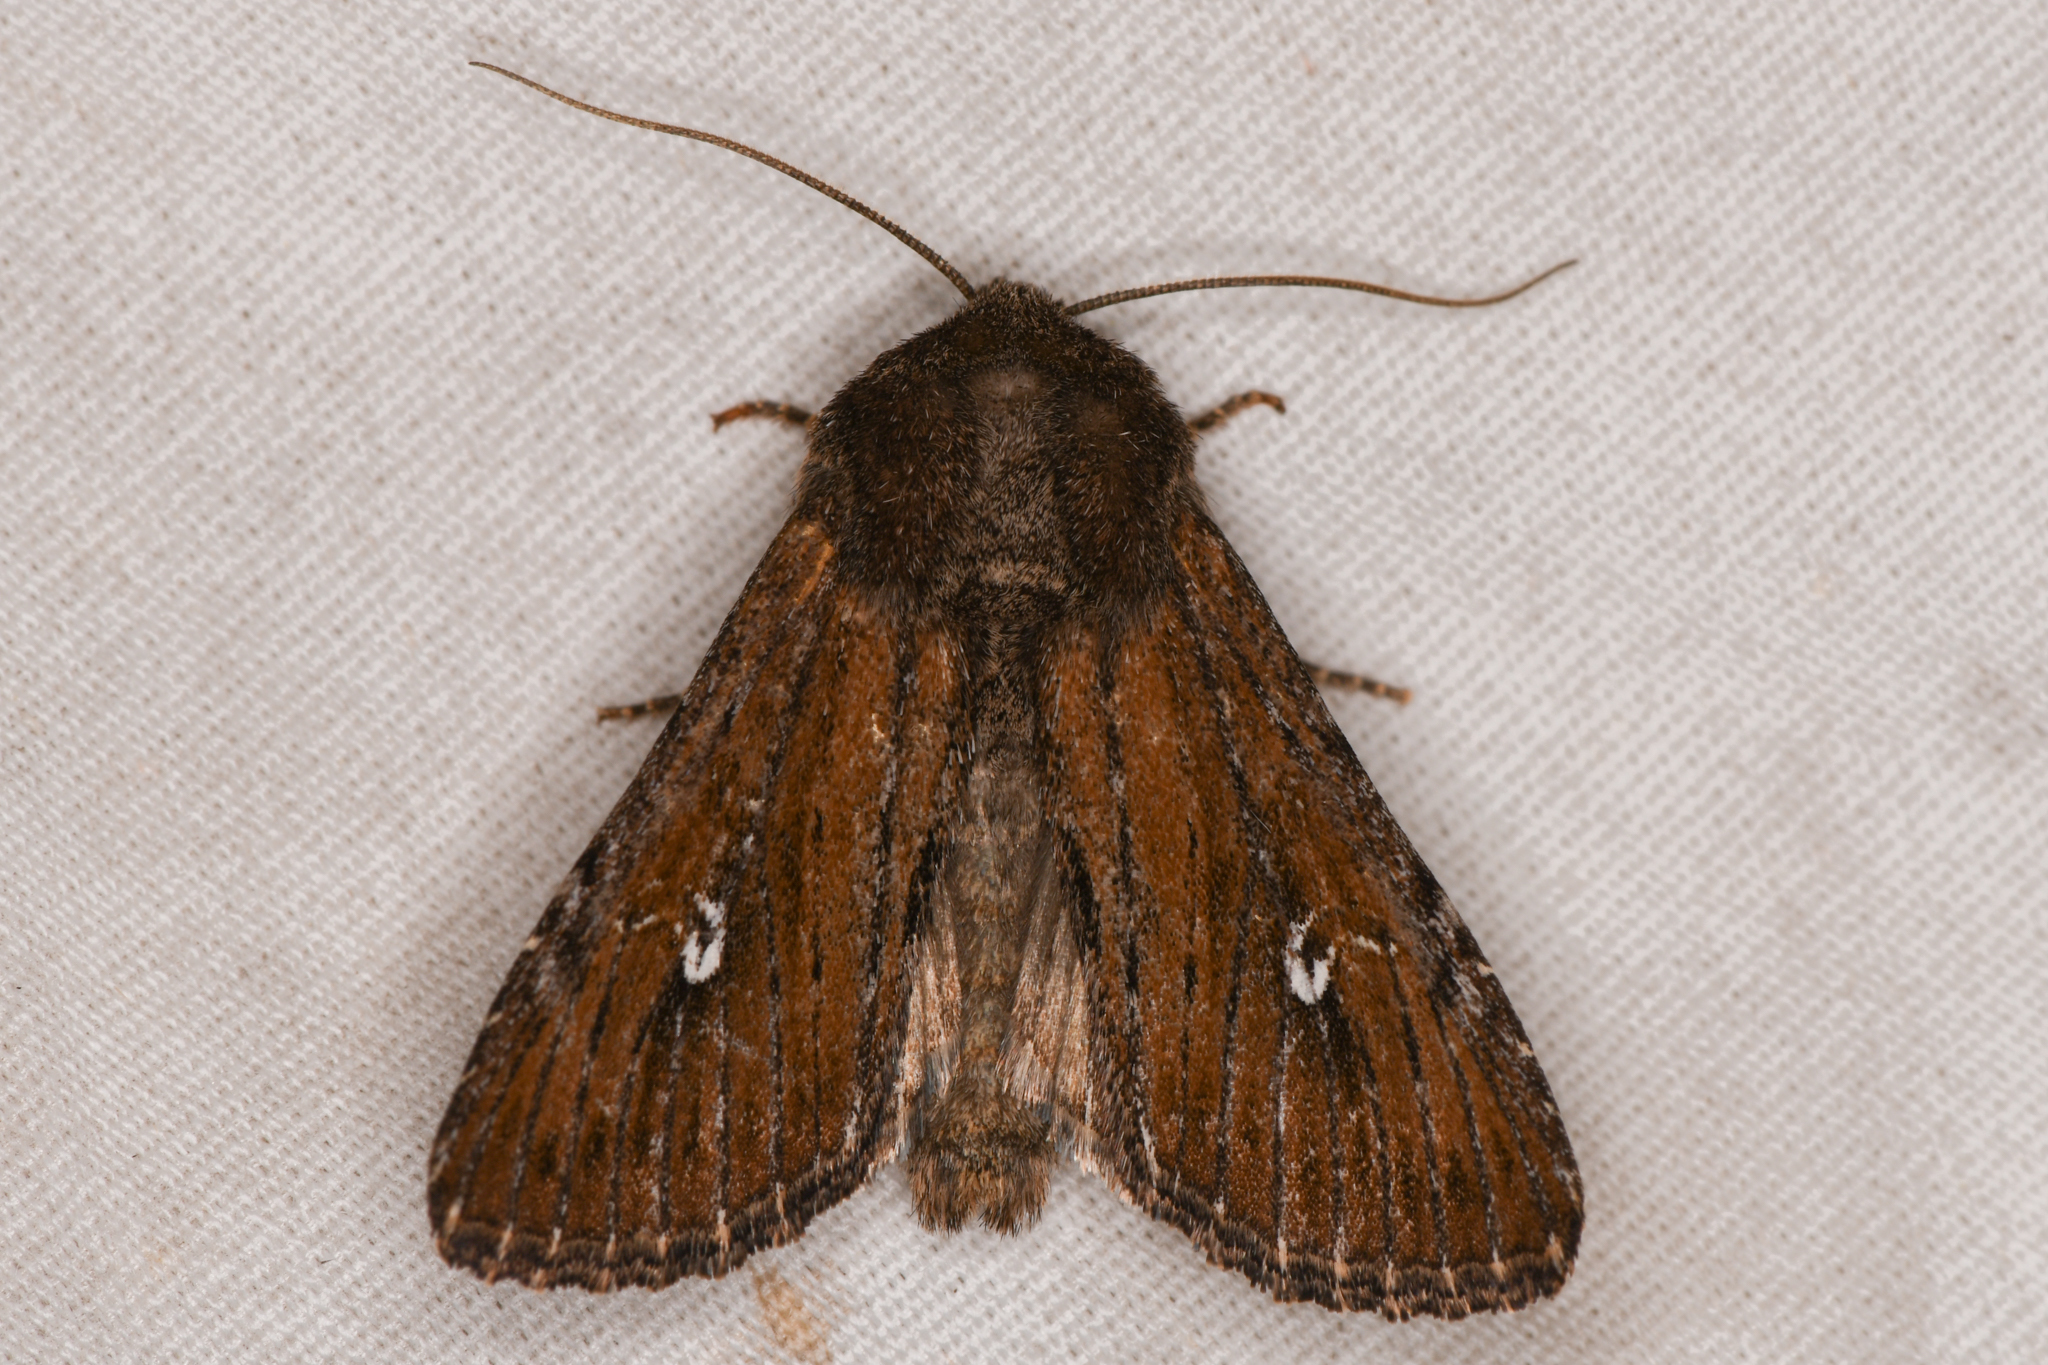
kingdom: Animalia
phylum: Arthropoda
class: Insecta
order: Lepidoptera
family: Noctuidae
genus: Sideridis
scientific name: Sideridis uscripta
